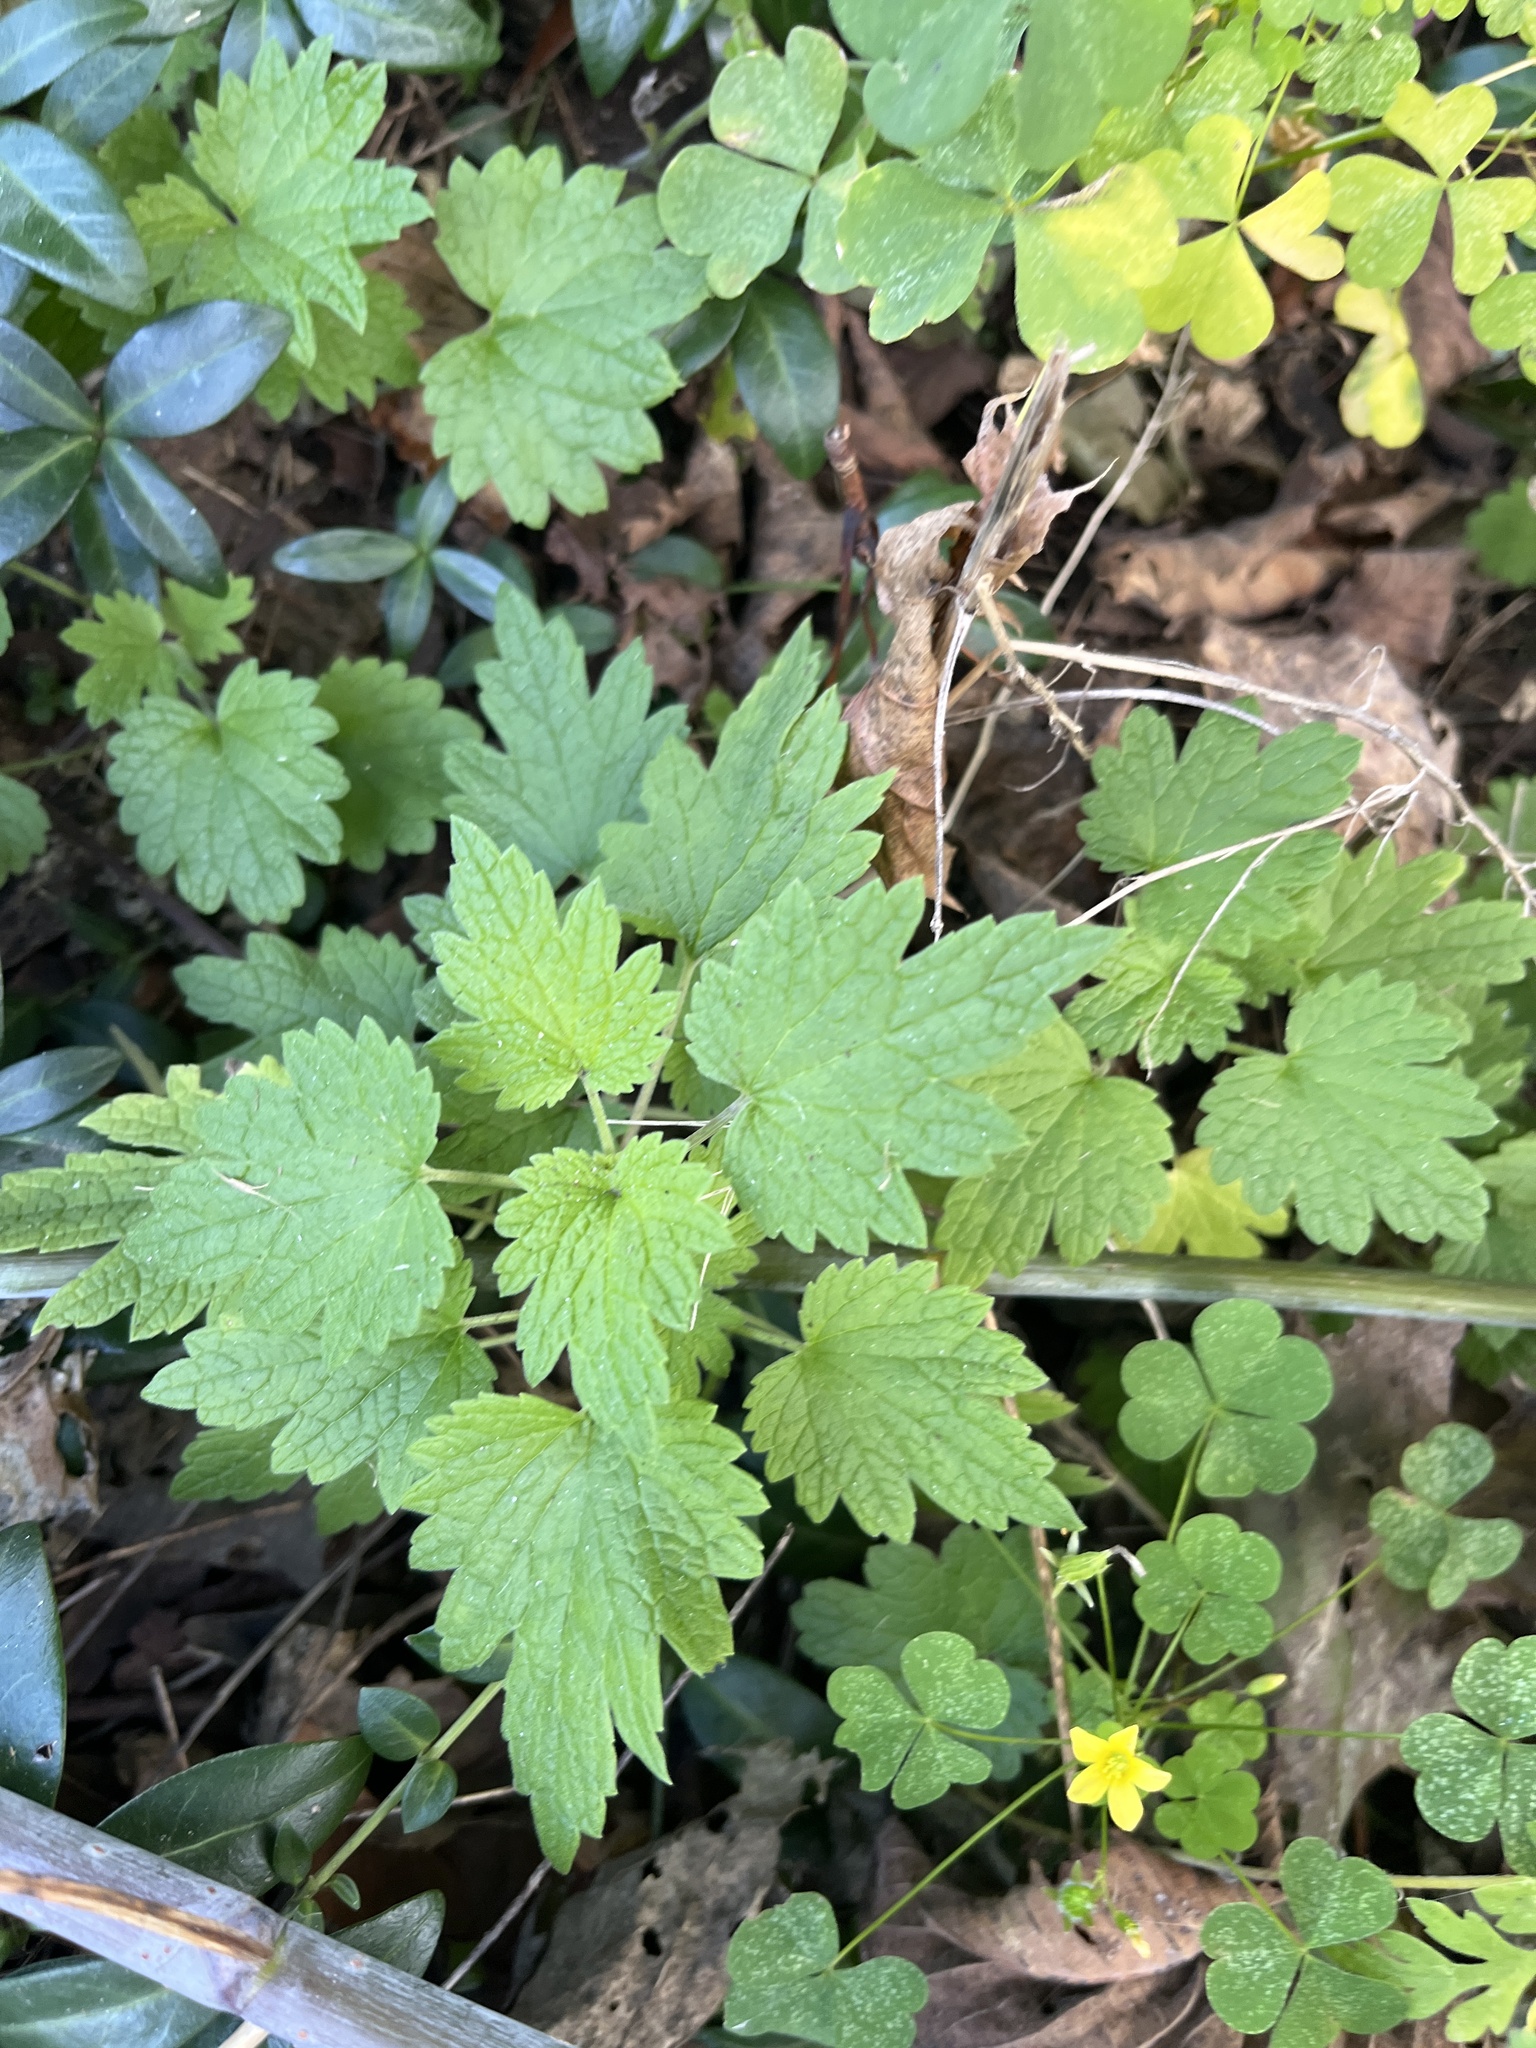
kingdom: Plantae
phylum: Tracheophyta
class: Magnoliopsida
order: Lamiales
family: Lamiaceae
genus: Leonurus
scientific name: Leonurus cardiaca
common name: Motherwort
